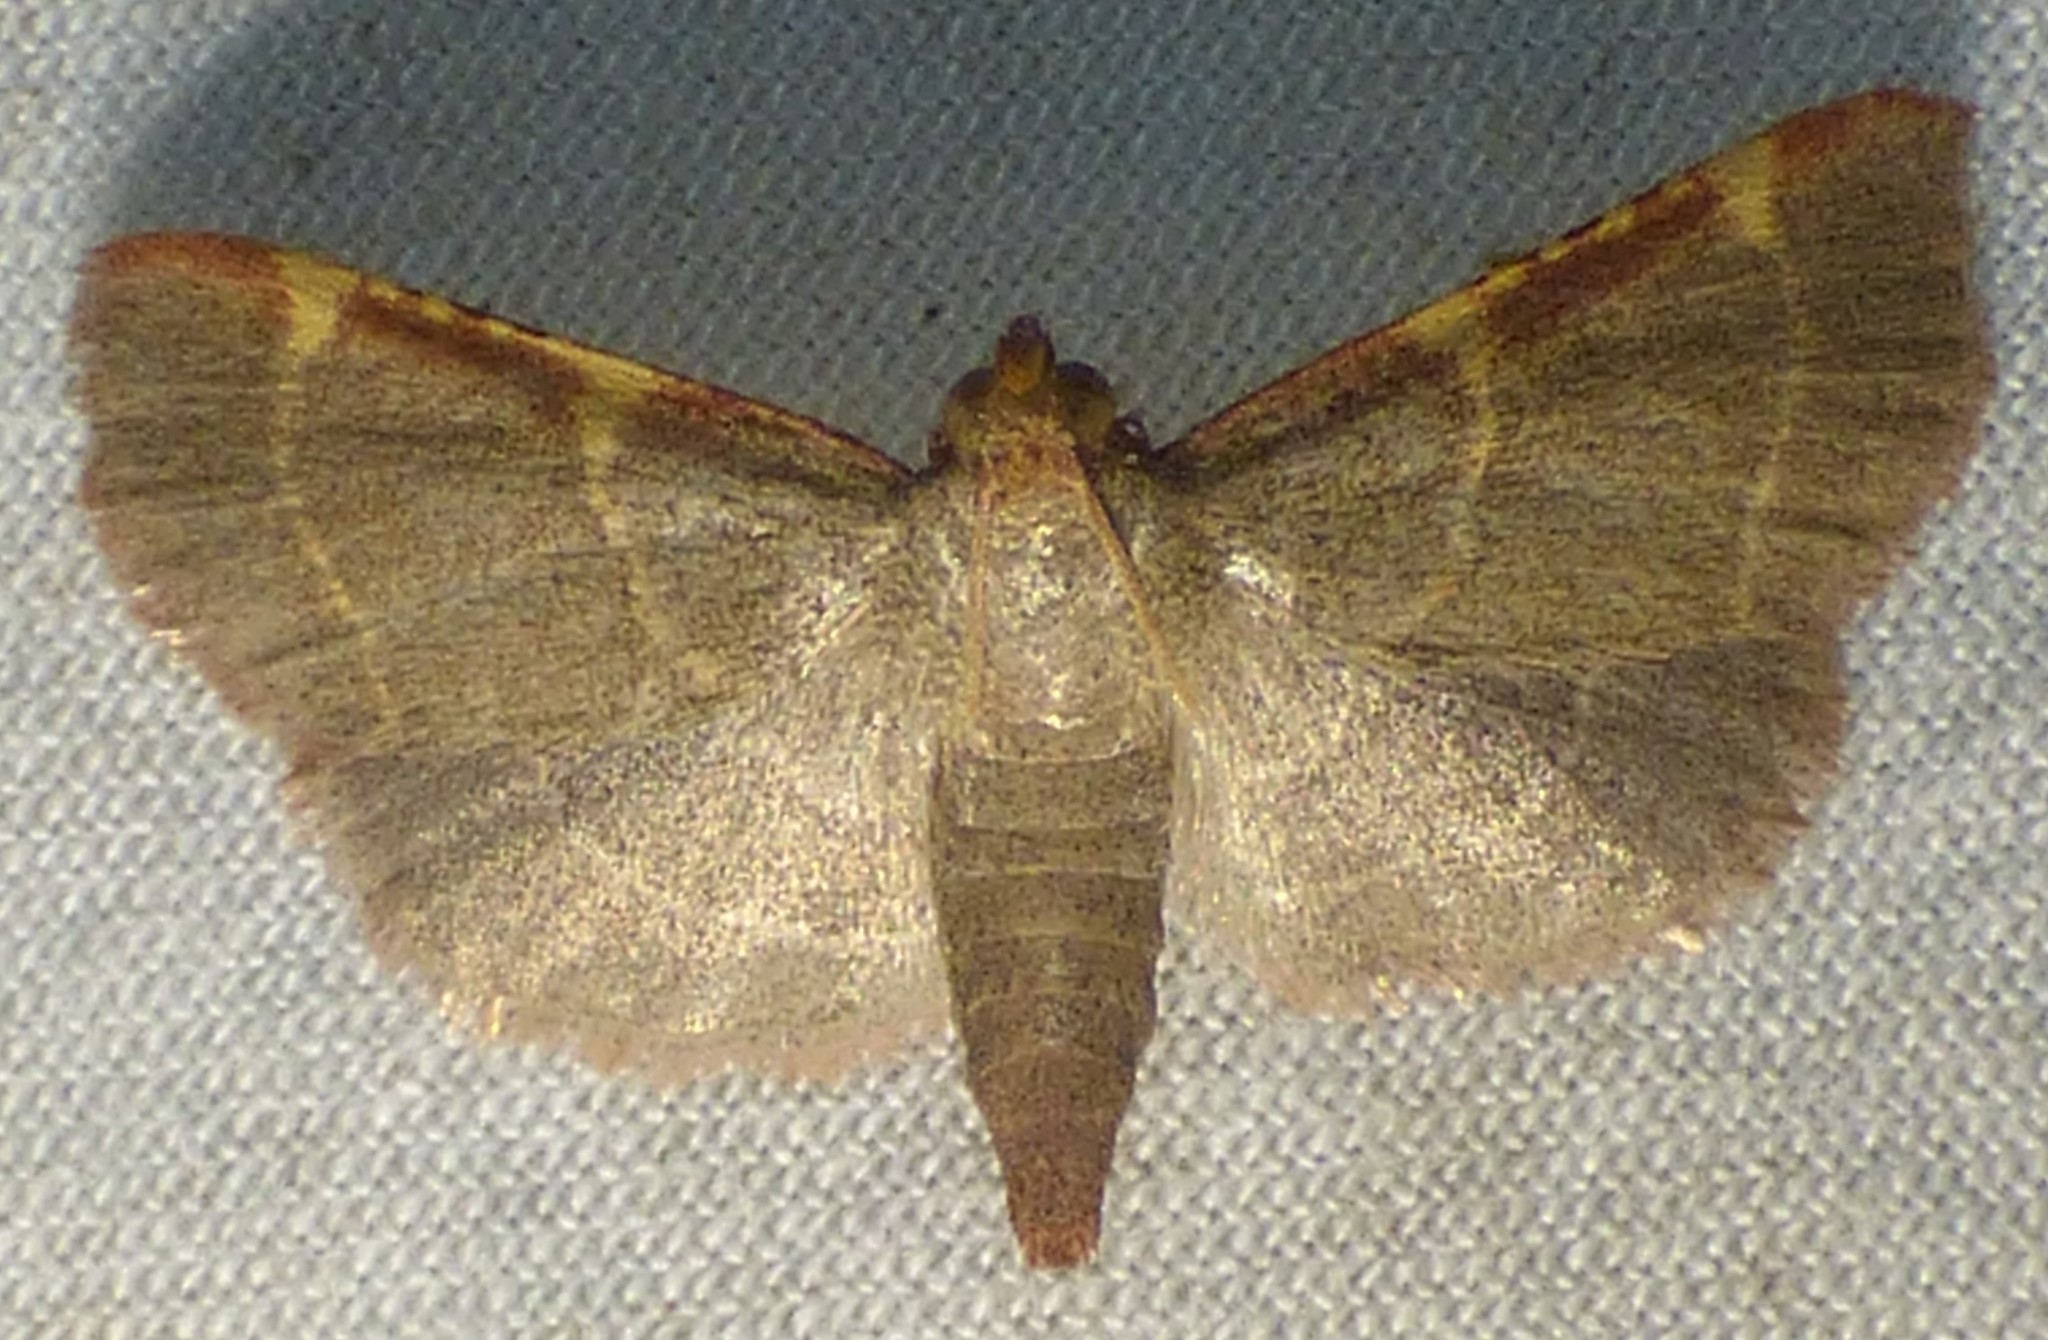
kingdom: Animalia
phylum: Arthropoda
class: Insecta
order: Lepidoptera
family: Pyralidae
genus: Hypsopygia
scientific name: Hypsopygia binodulalis
